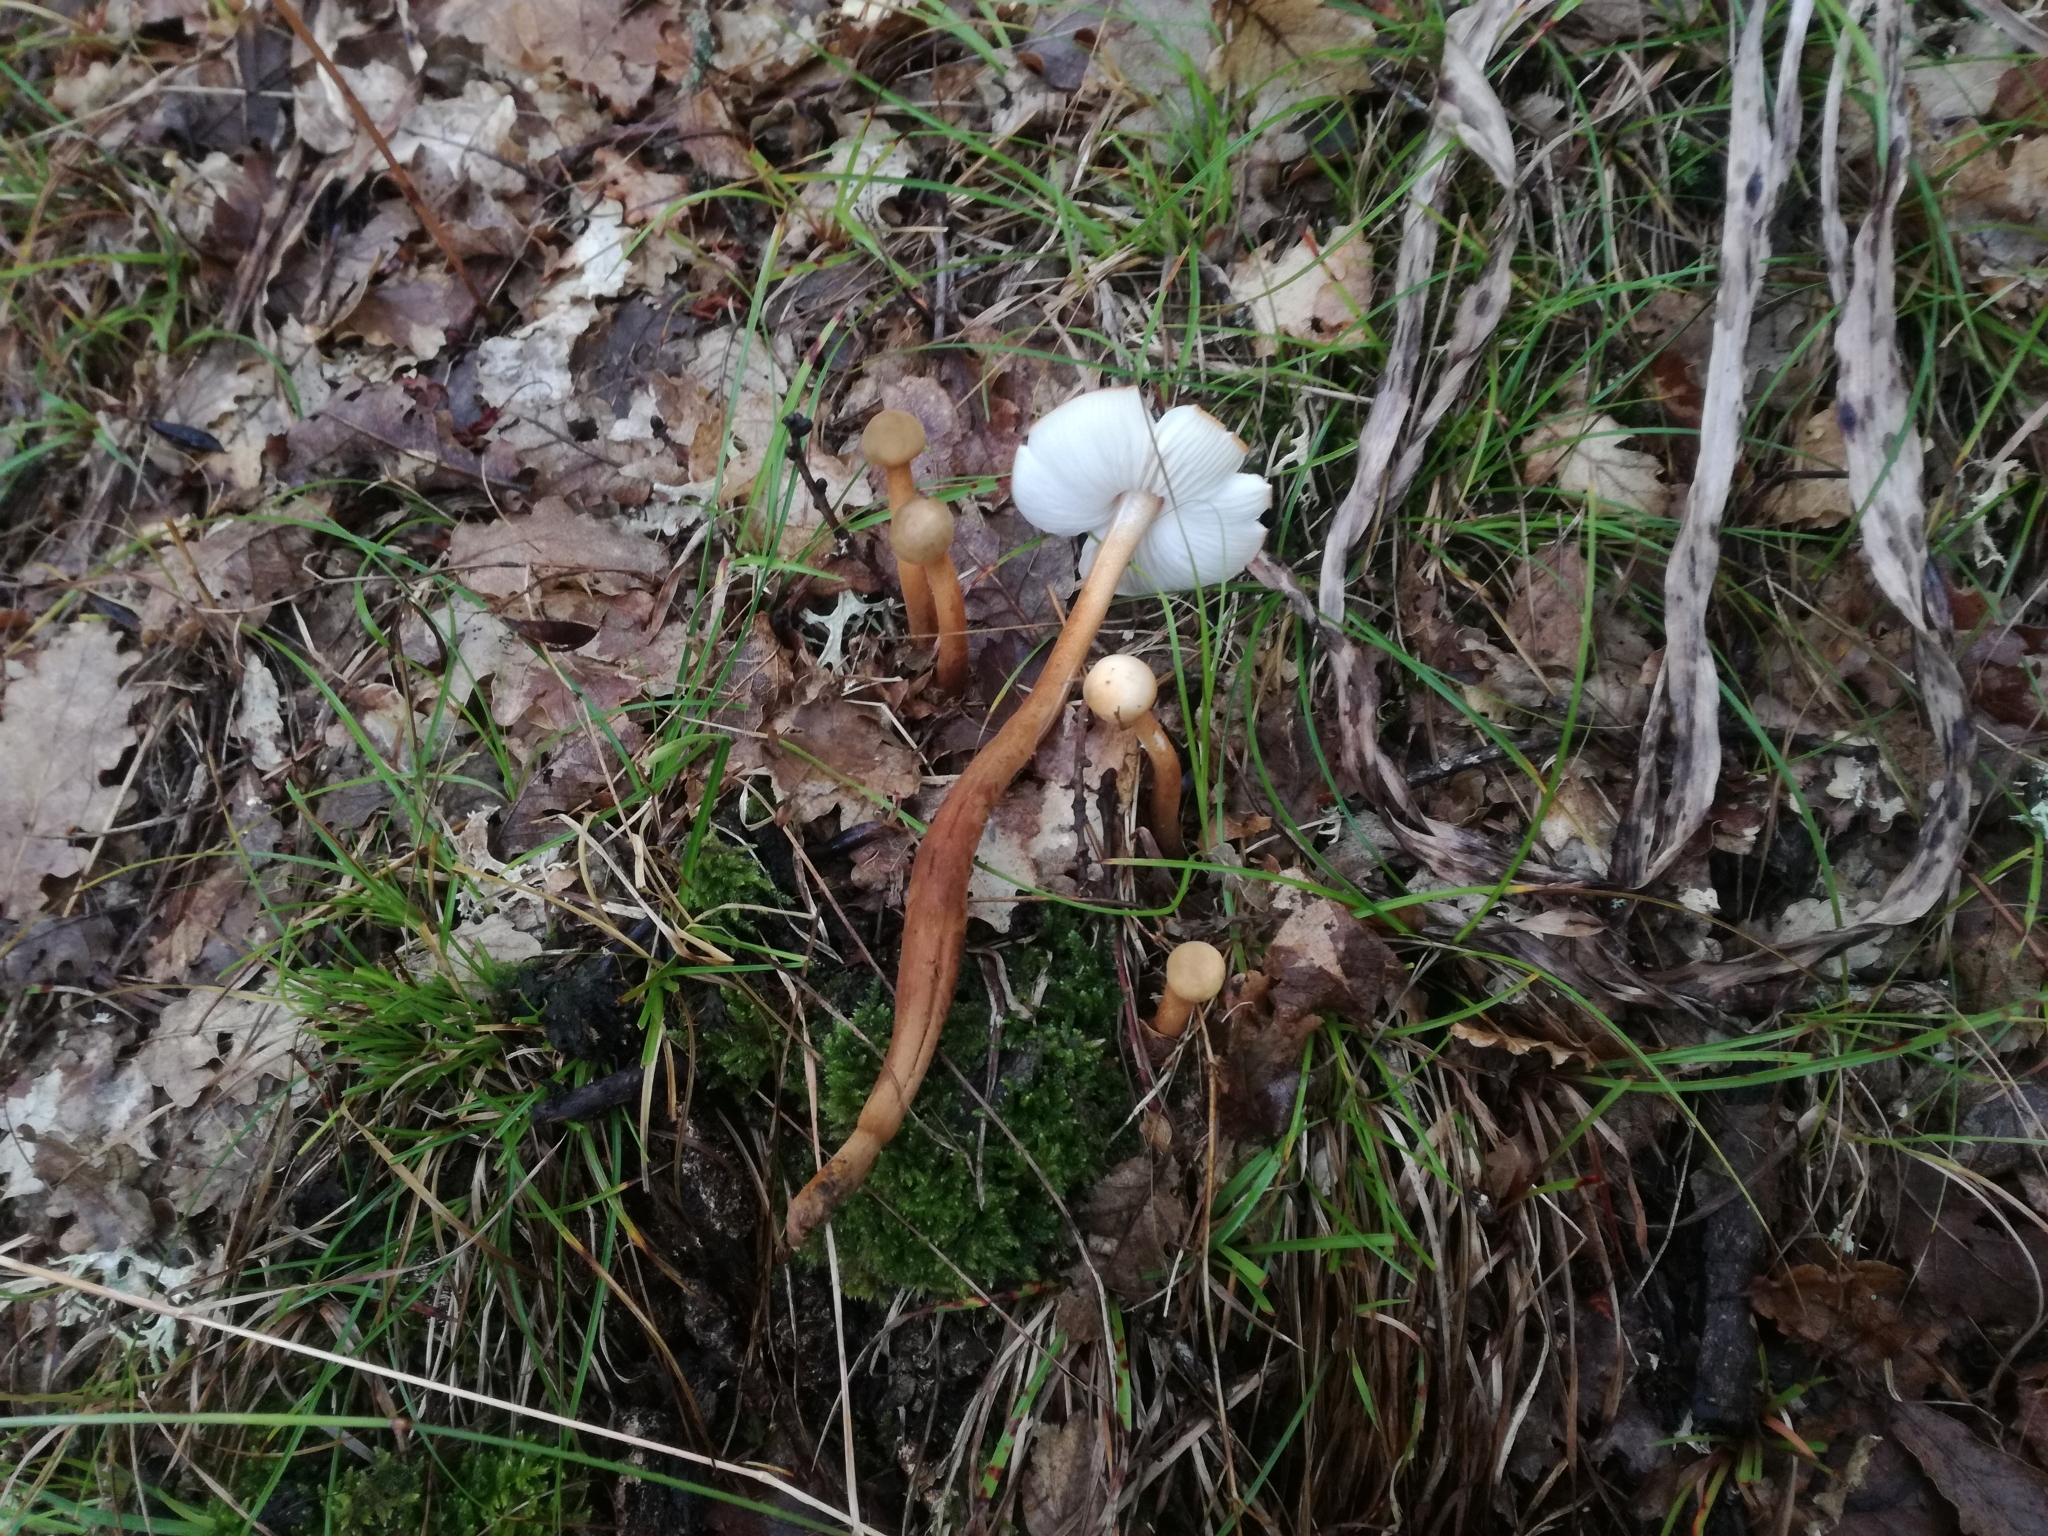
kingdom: Fungi
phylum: Basidiomycota
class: Agaricomycetes
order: Agaricales
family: Physalacriaceae
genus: Xerula
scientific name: Xerula pudens
